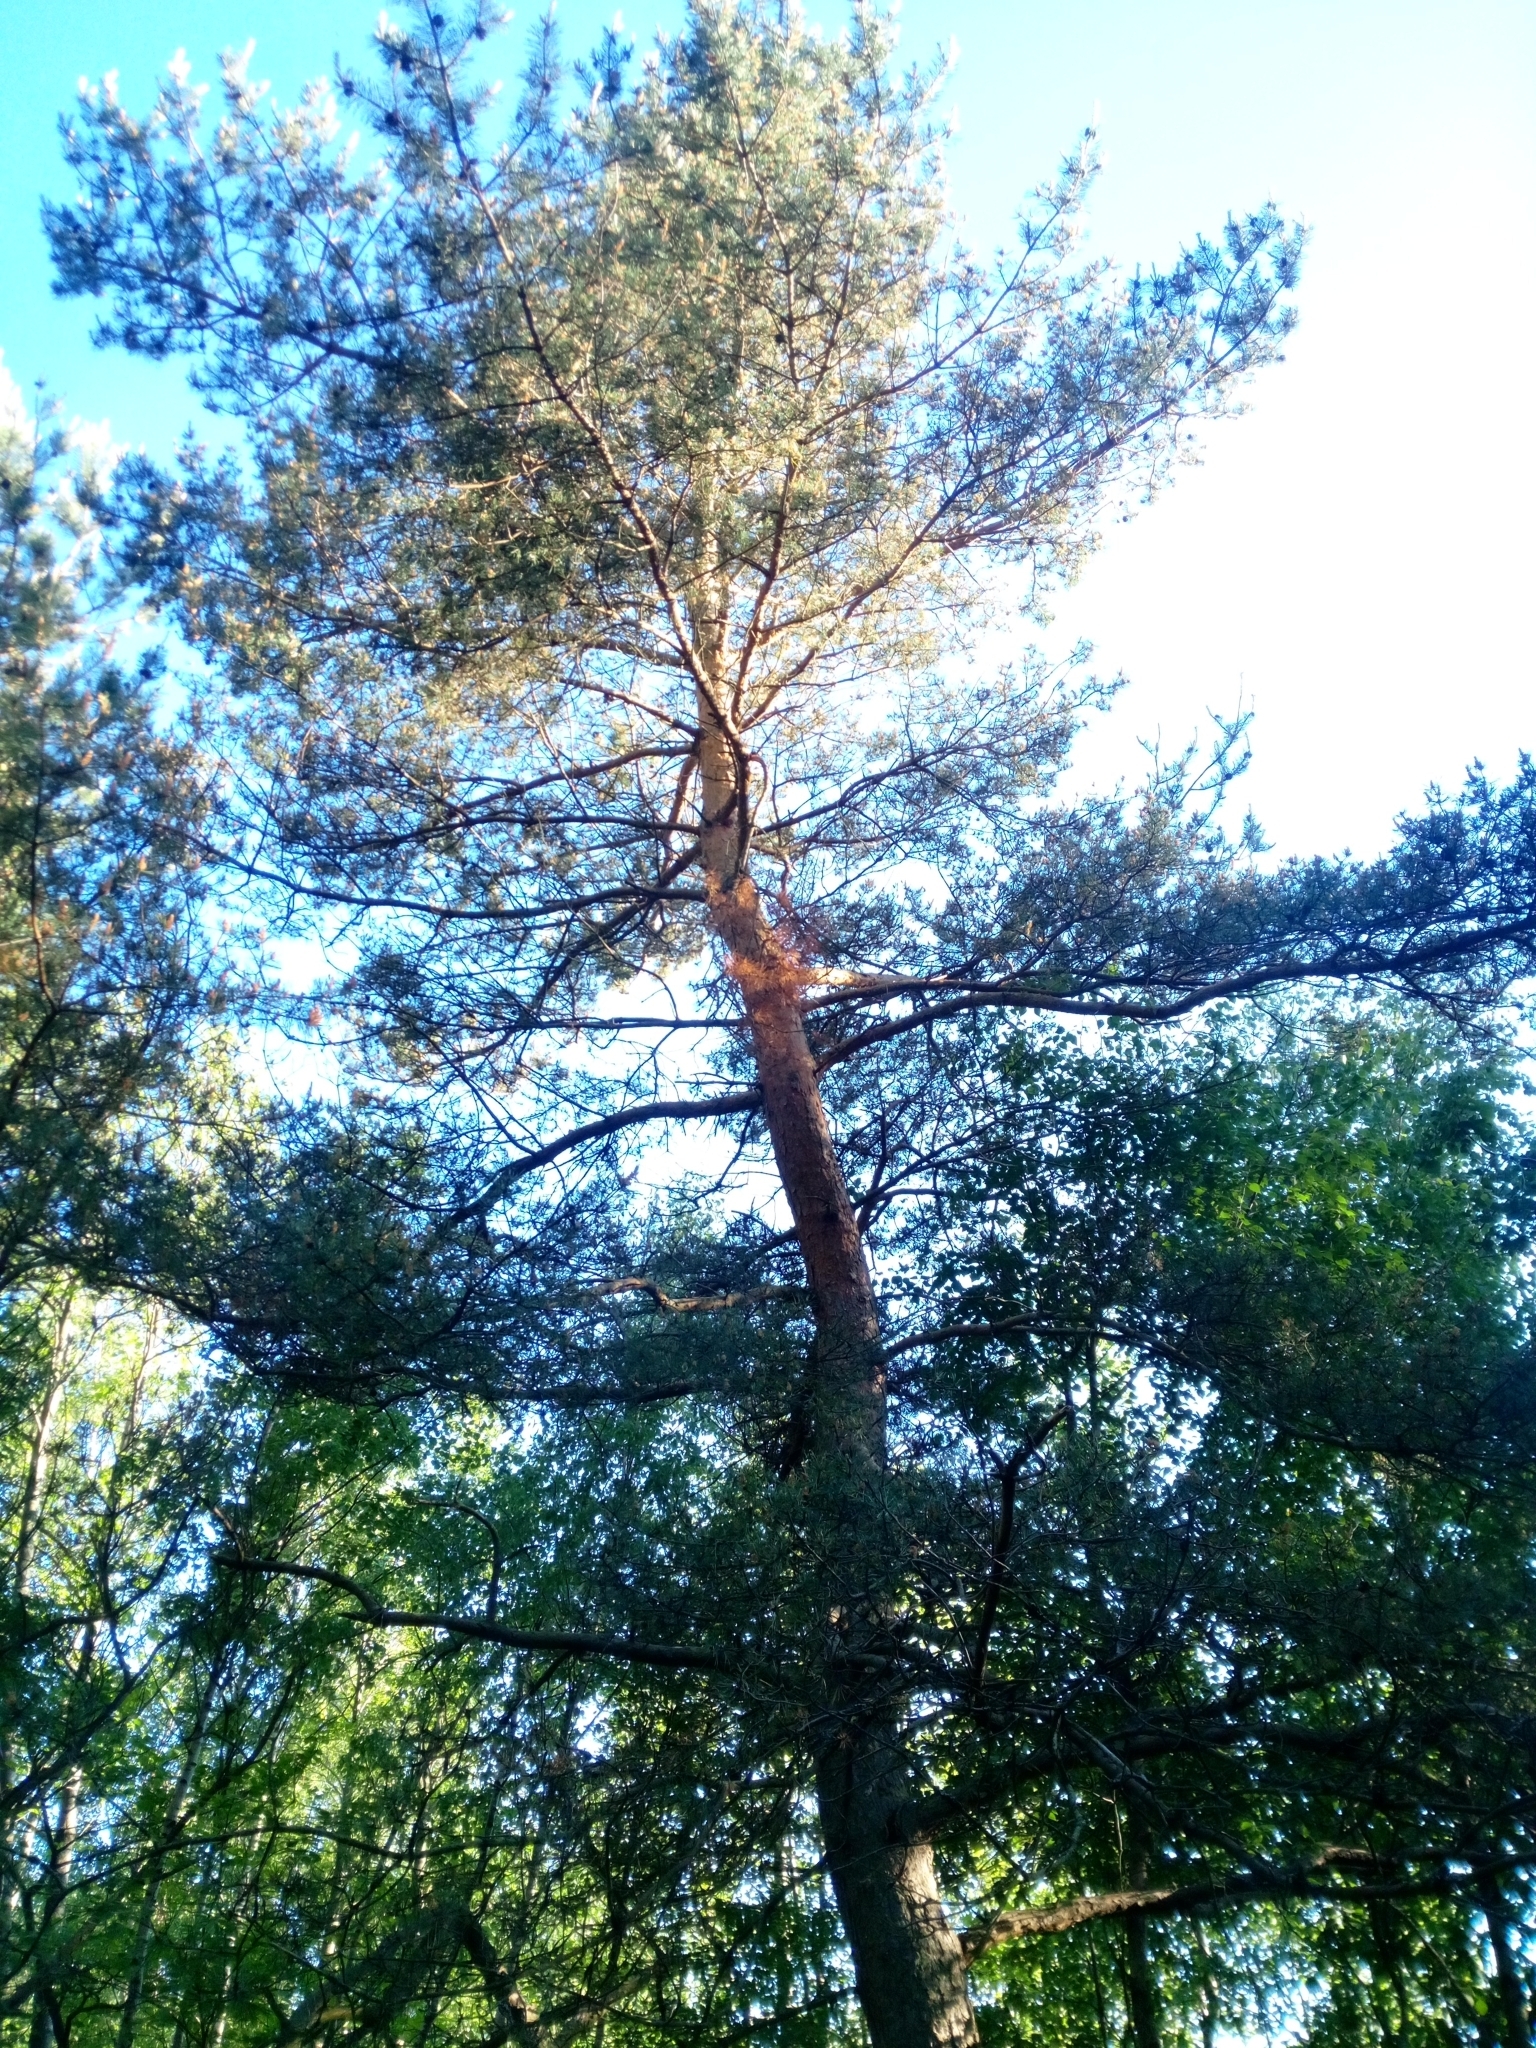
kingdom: Plantae
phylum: Tracheophyta
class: Pinopsida
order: Pinales
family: Pinaceae
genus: Pinus
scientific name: Pinus sylvestris
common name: Scots pine
